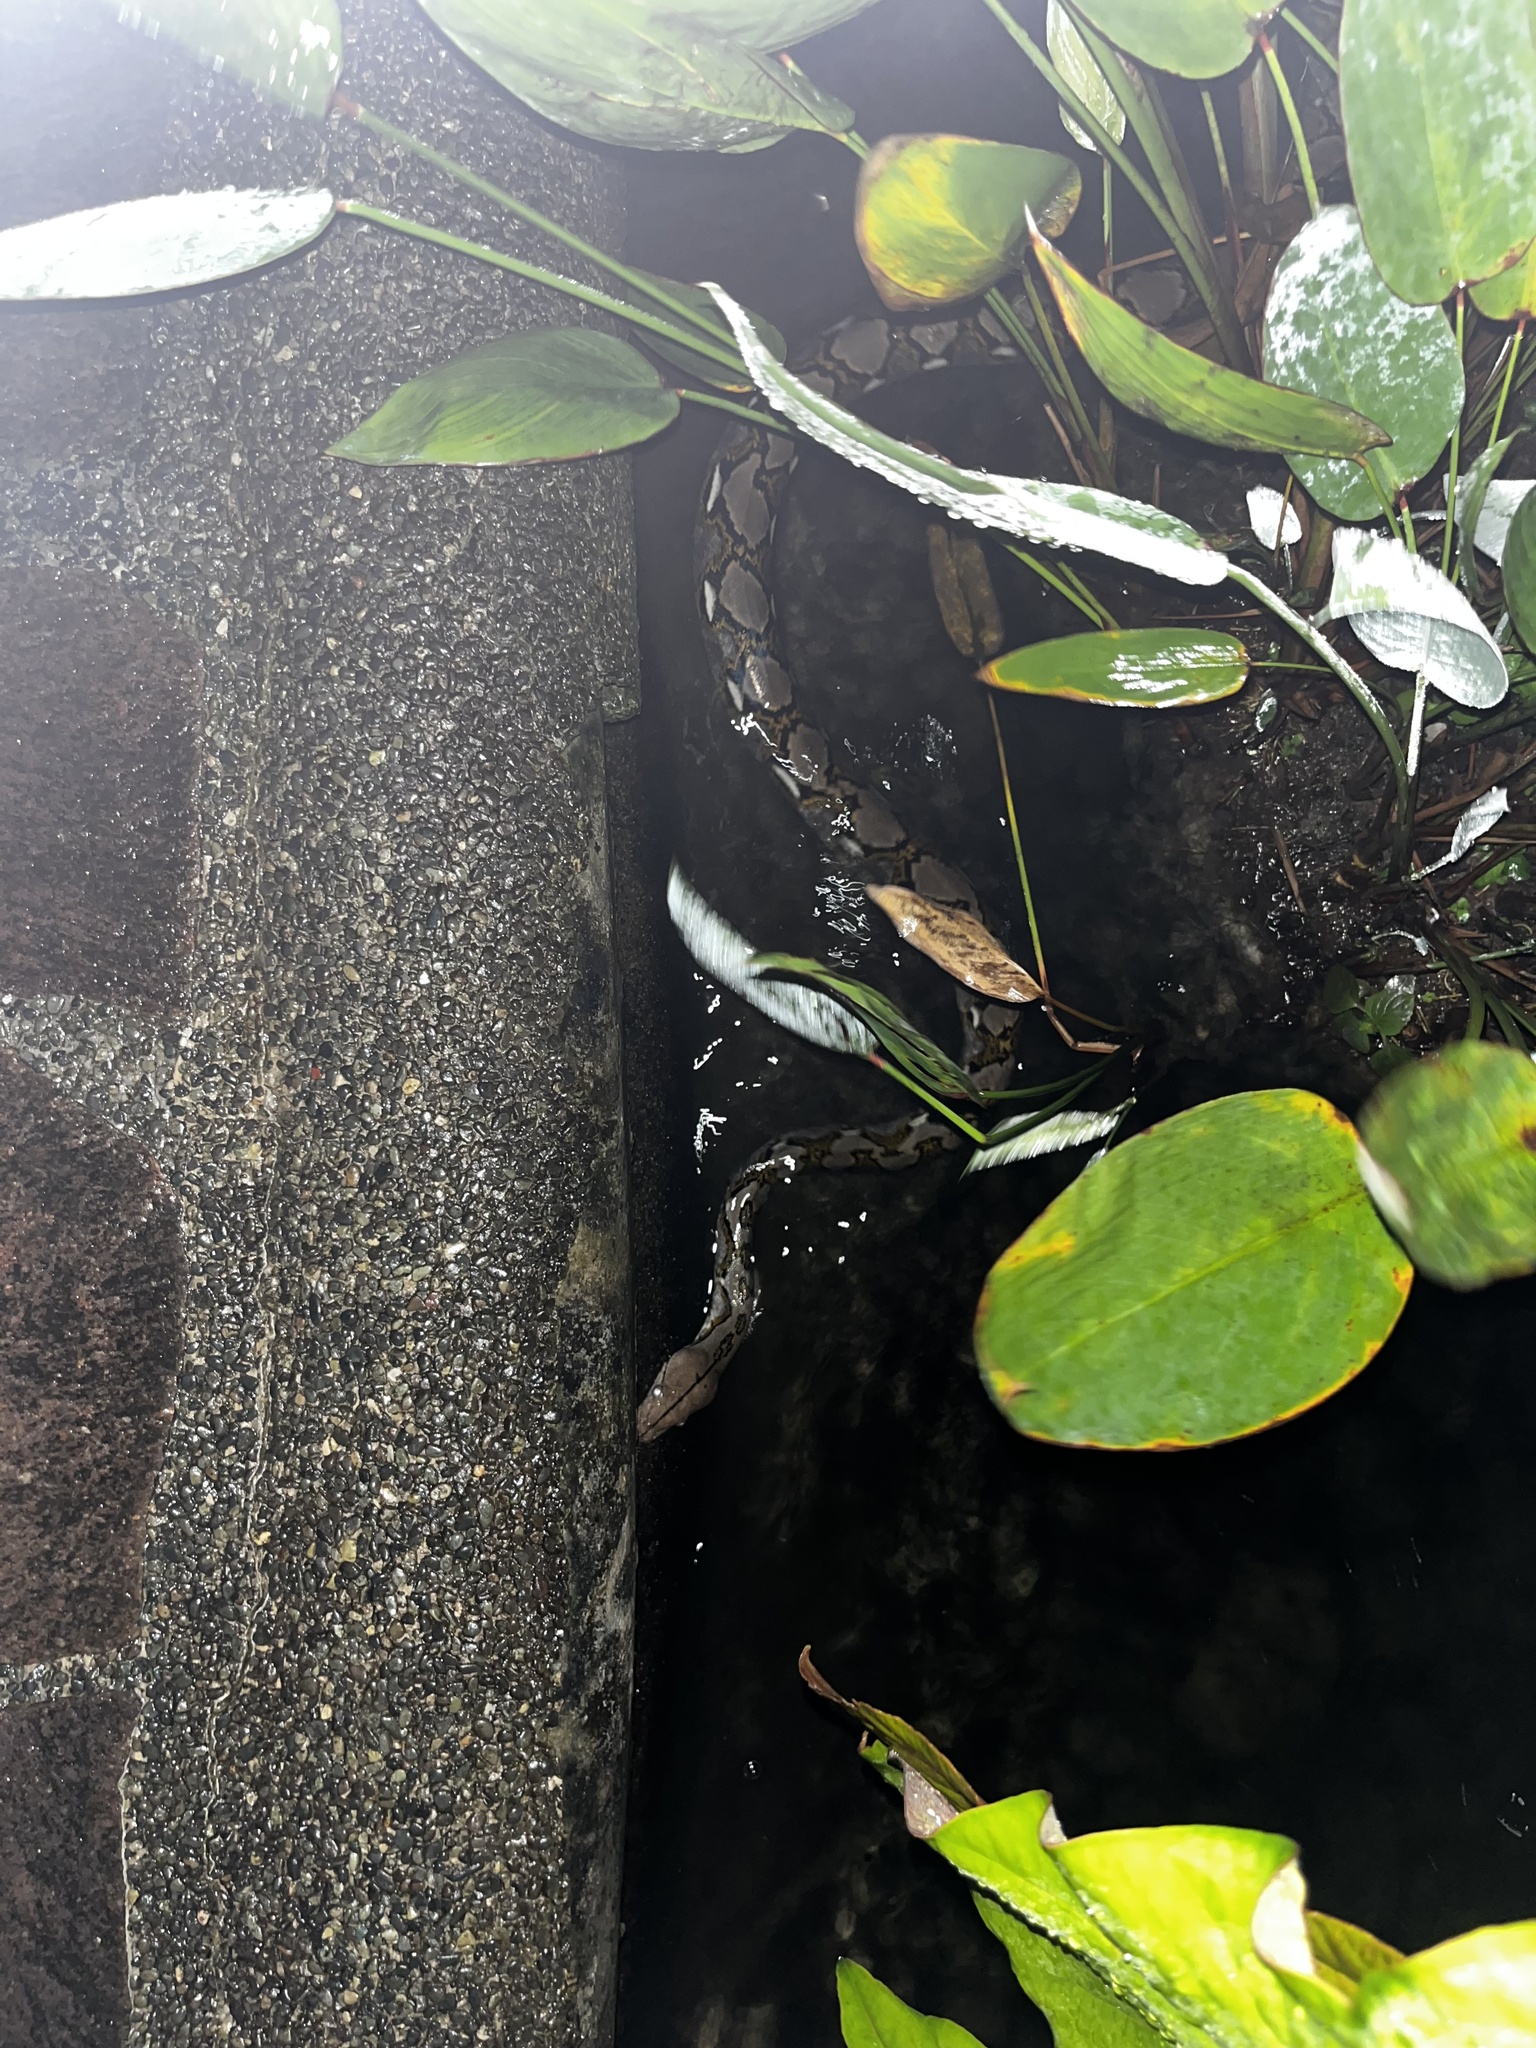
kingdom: Animalia
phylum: Chordata
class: Squamata
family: Pythonidae
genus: Malayopython
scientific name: Malayopython reticulatus
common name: Reticulated python
